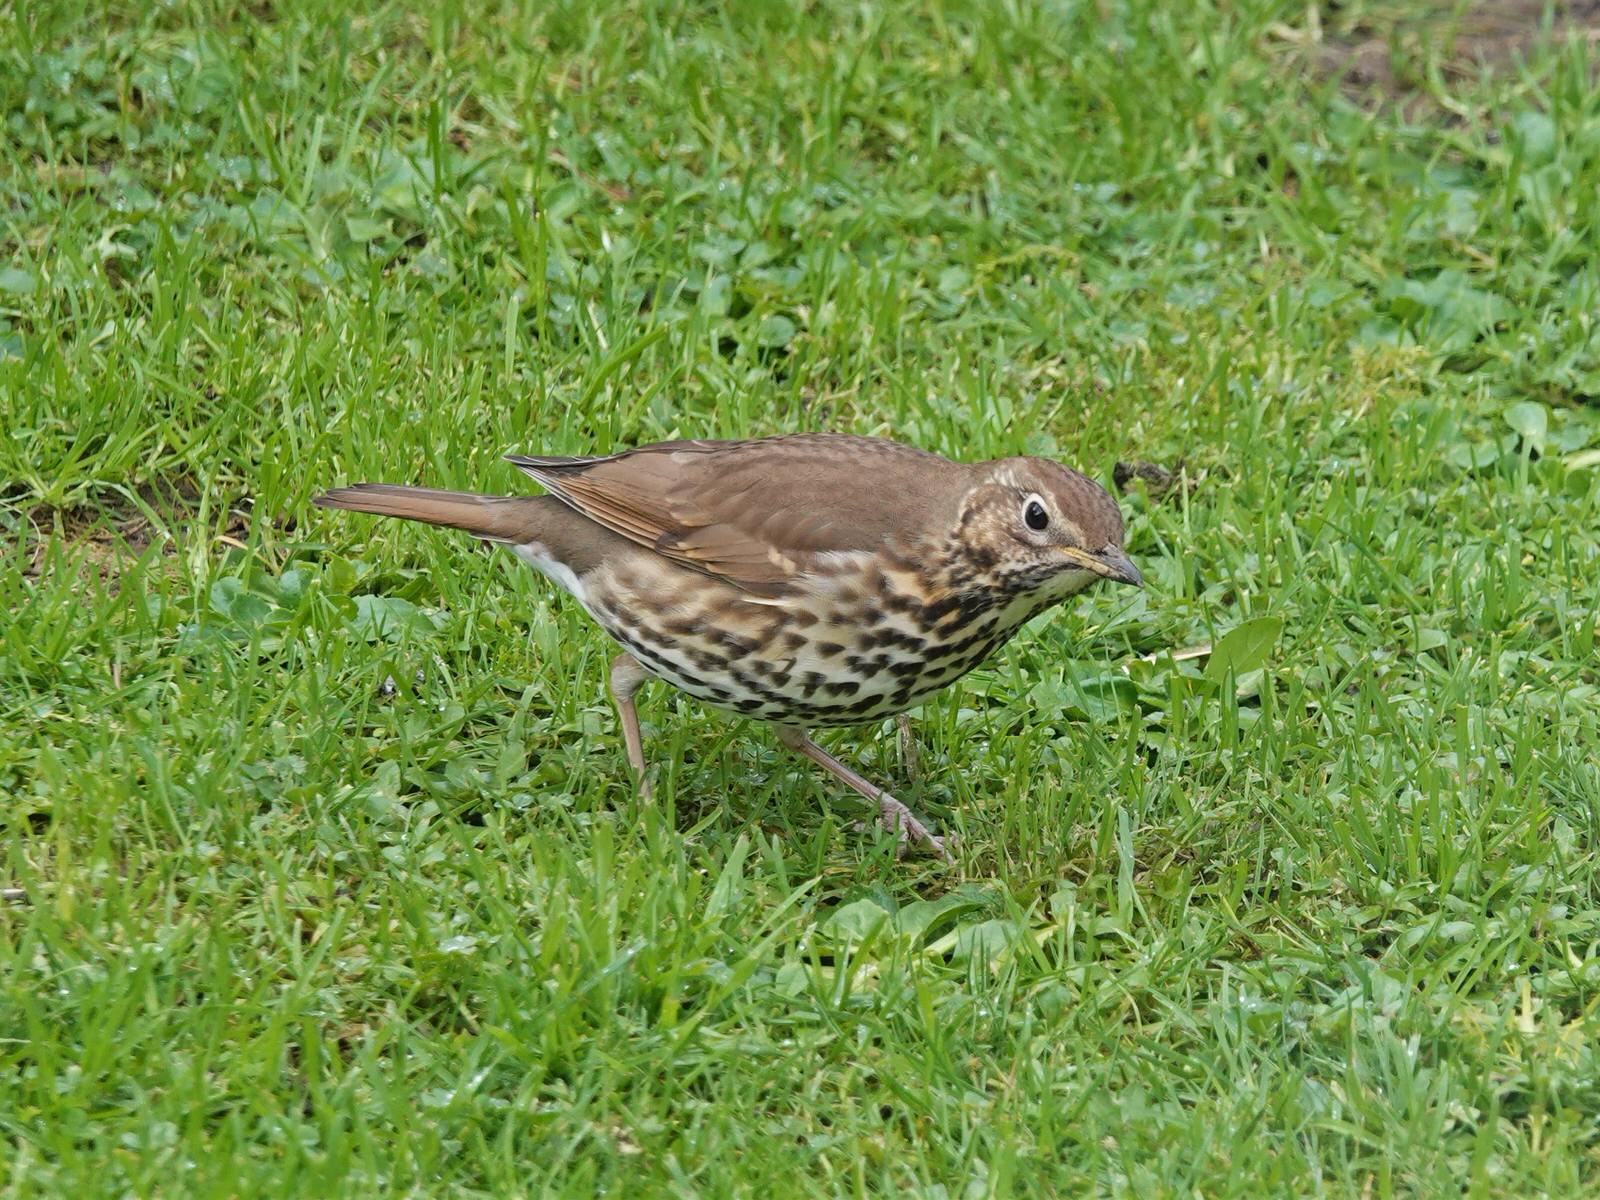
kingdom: Animalia
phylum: Chordata
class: Aves
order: Passeriformes
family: Turdidae
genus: Turdus
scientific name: Turdus philomelos
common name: Song thrush
